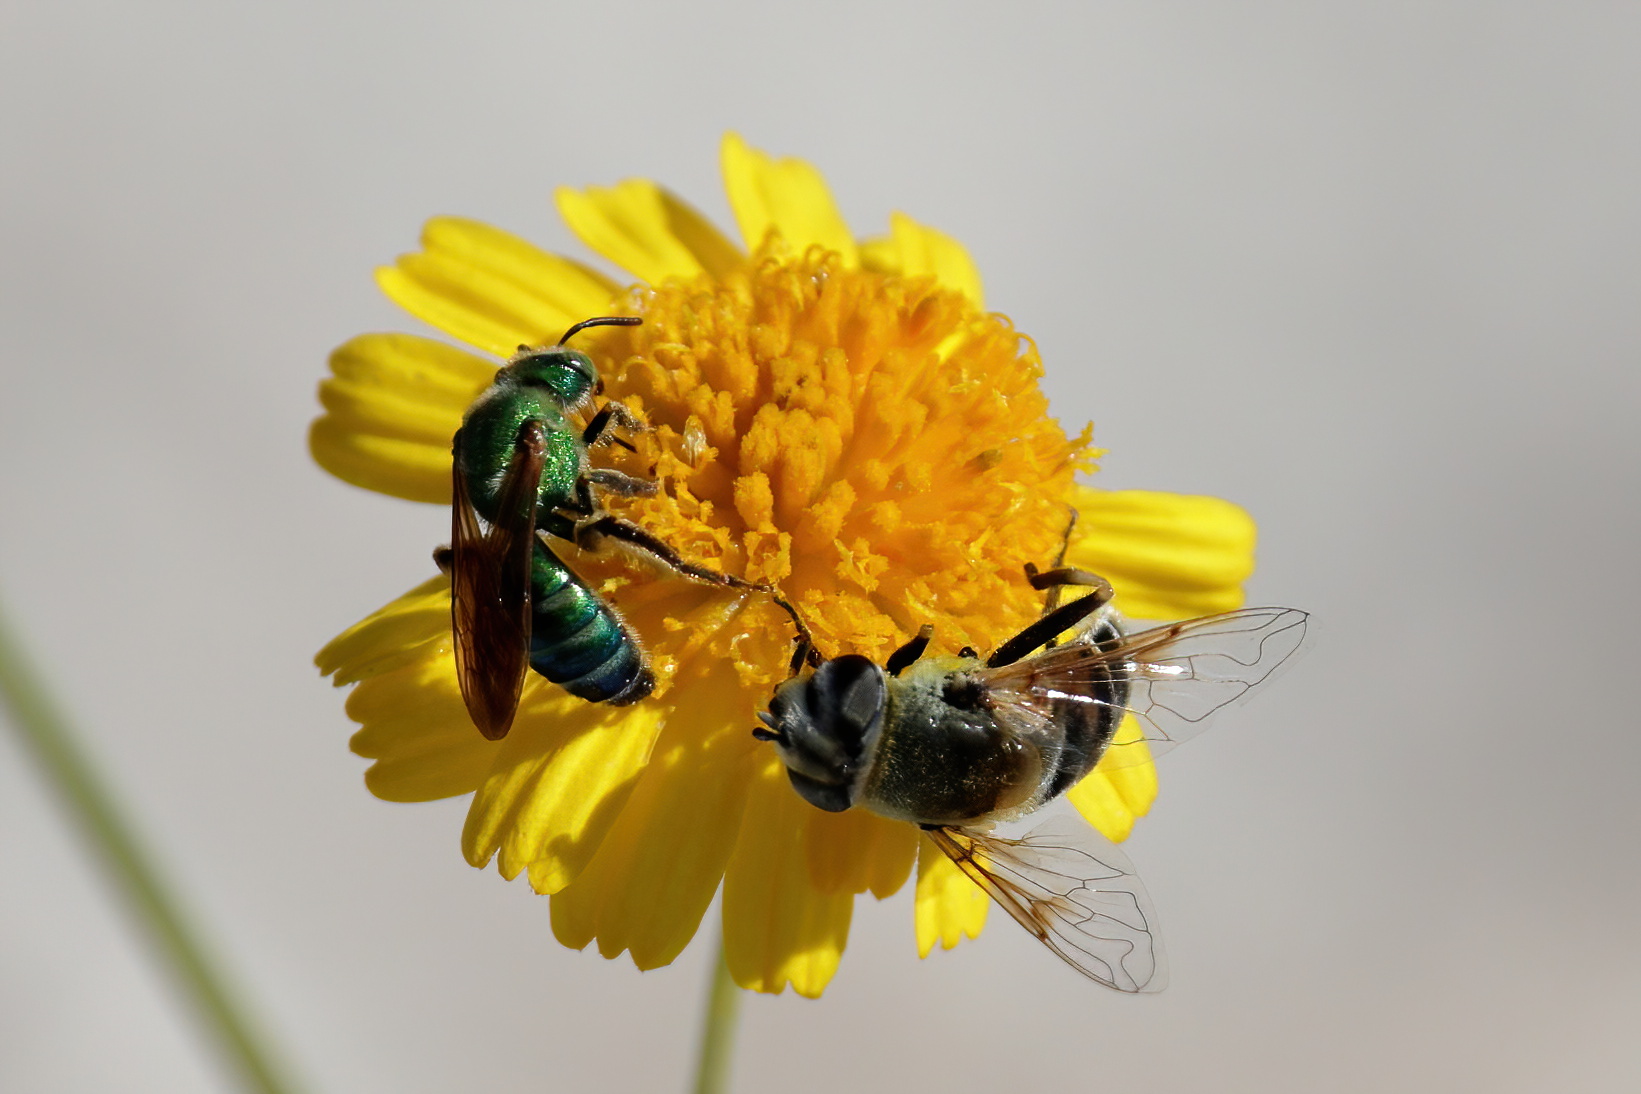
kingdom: Animalia
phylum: Arthropoda
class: Insecta
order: Diptera
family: Syrphidae
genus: Eristalis
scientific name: Eristalis stipator
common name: Yellow-shouldered drone fly
